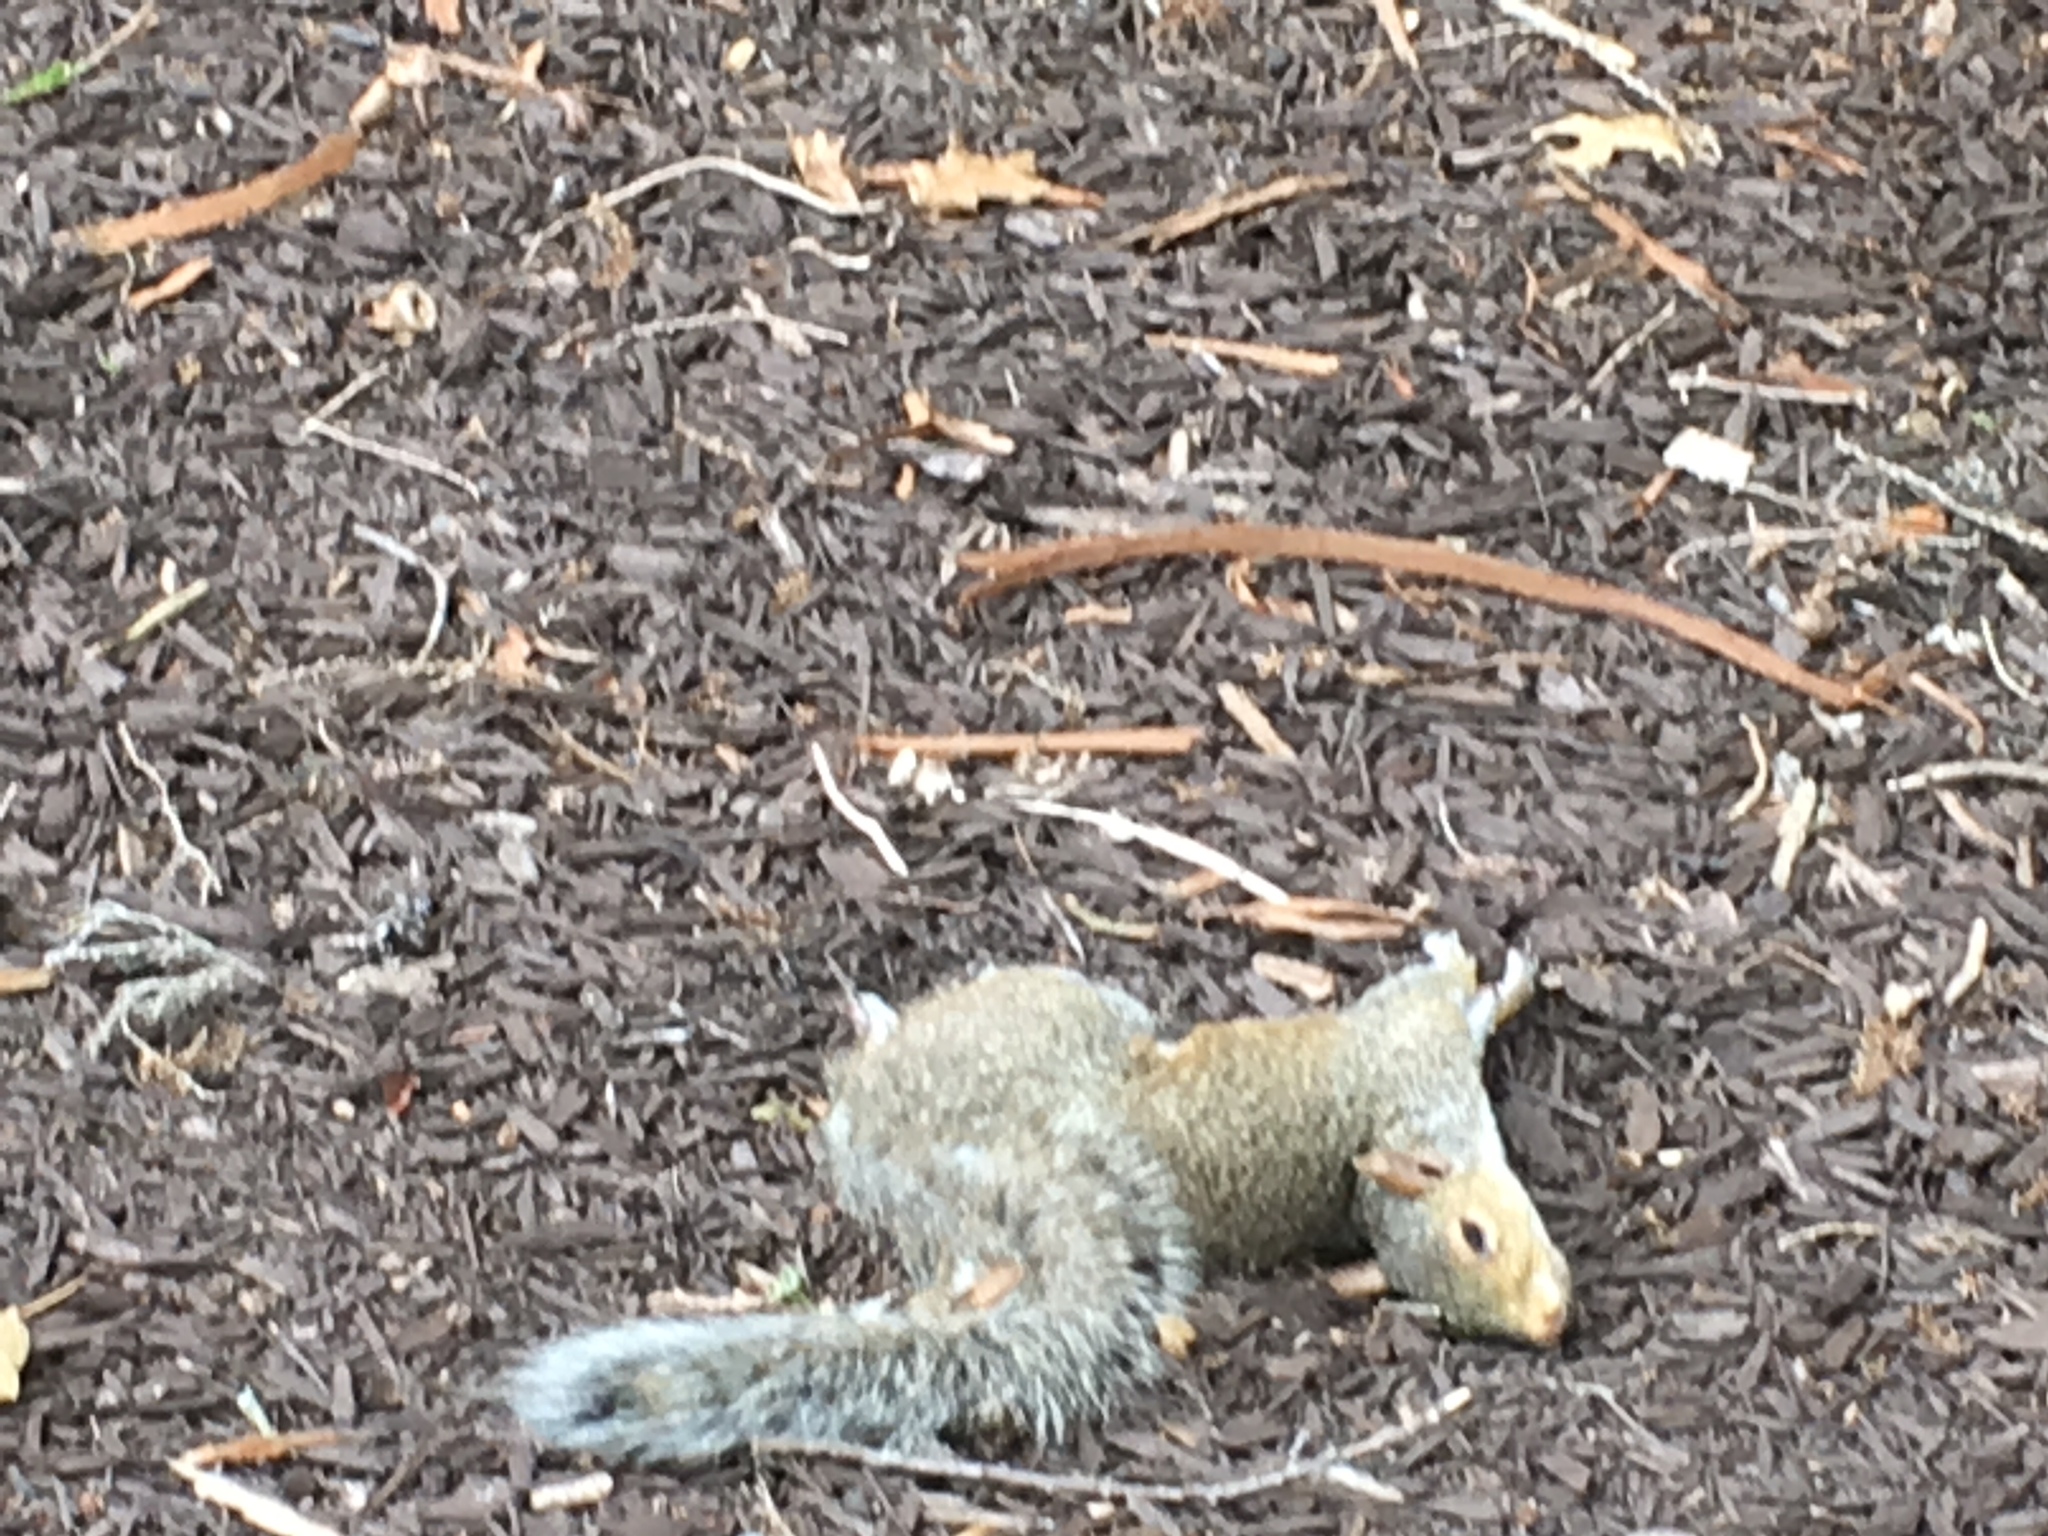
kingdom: Animalia
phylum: Chordata
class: Mammalia
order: Rodentia
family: Sciuridae
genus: Sciurus
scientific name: Sciurus carolinensis
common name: Eastern gray squirrel
